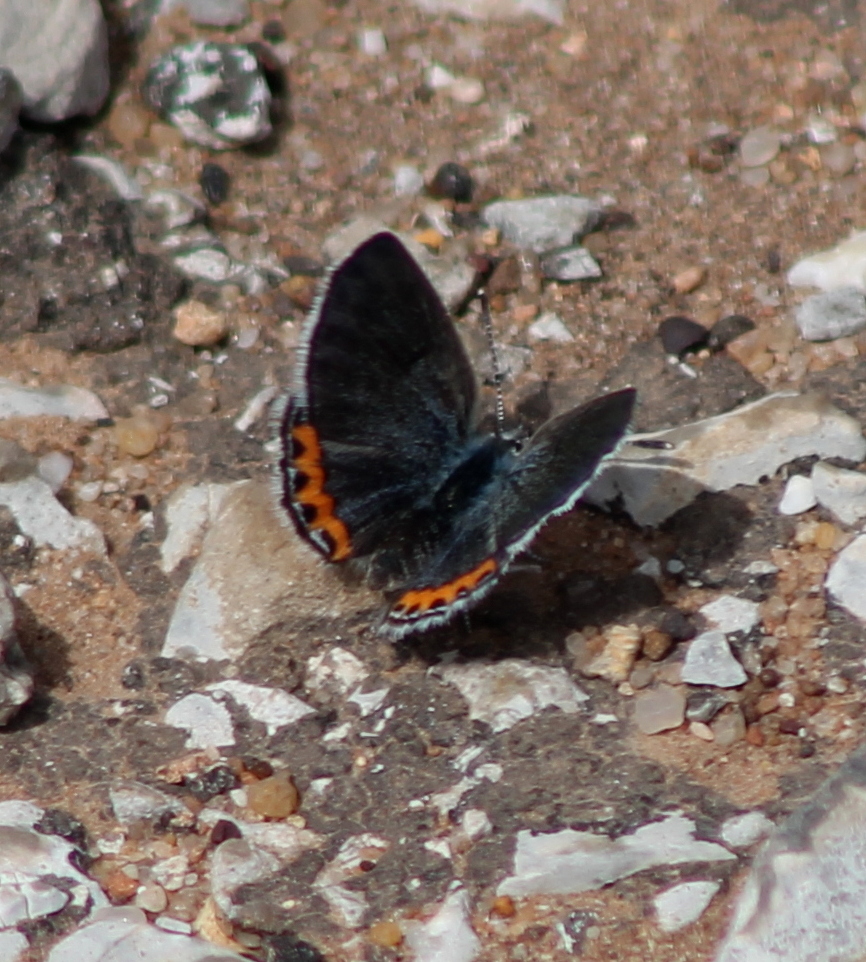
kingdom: Animalia
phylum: Arthropoda
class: Insecta
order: Lepidoptera
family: Lycaenidae
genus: Icaricia
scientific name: Icaricia lupini
